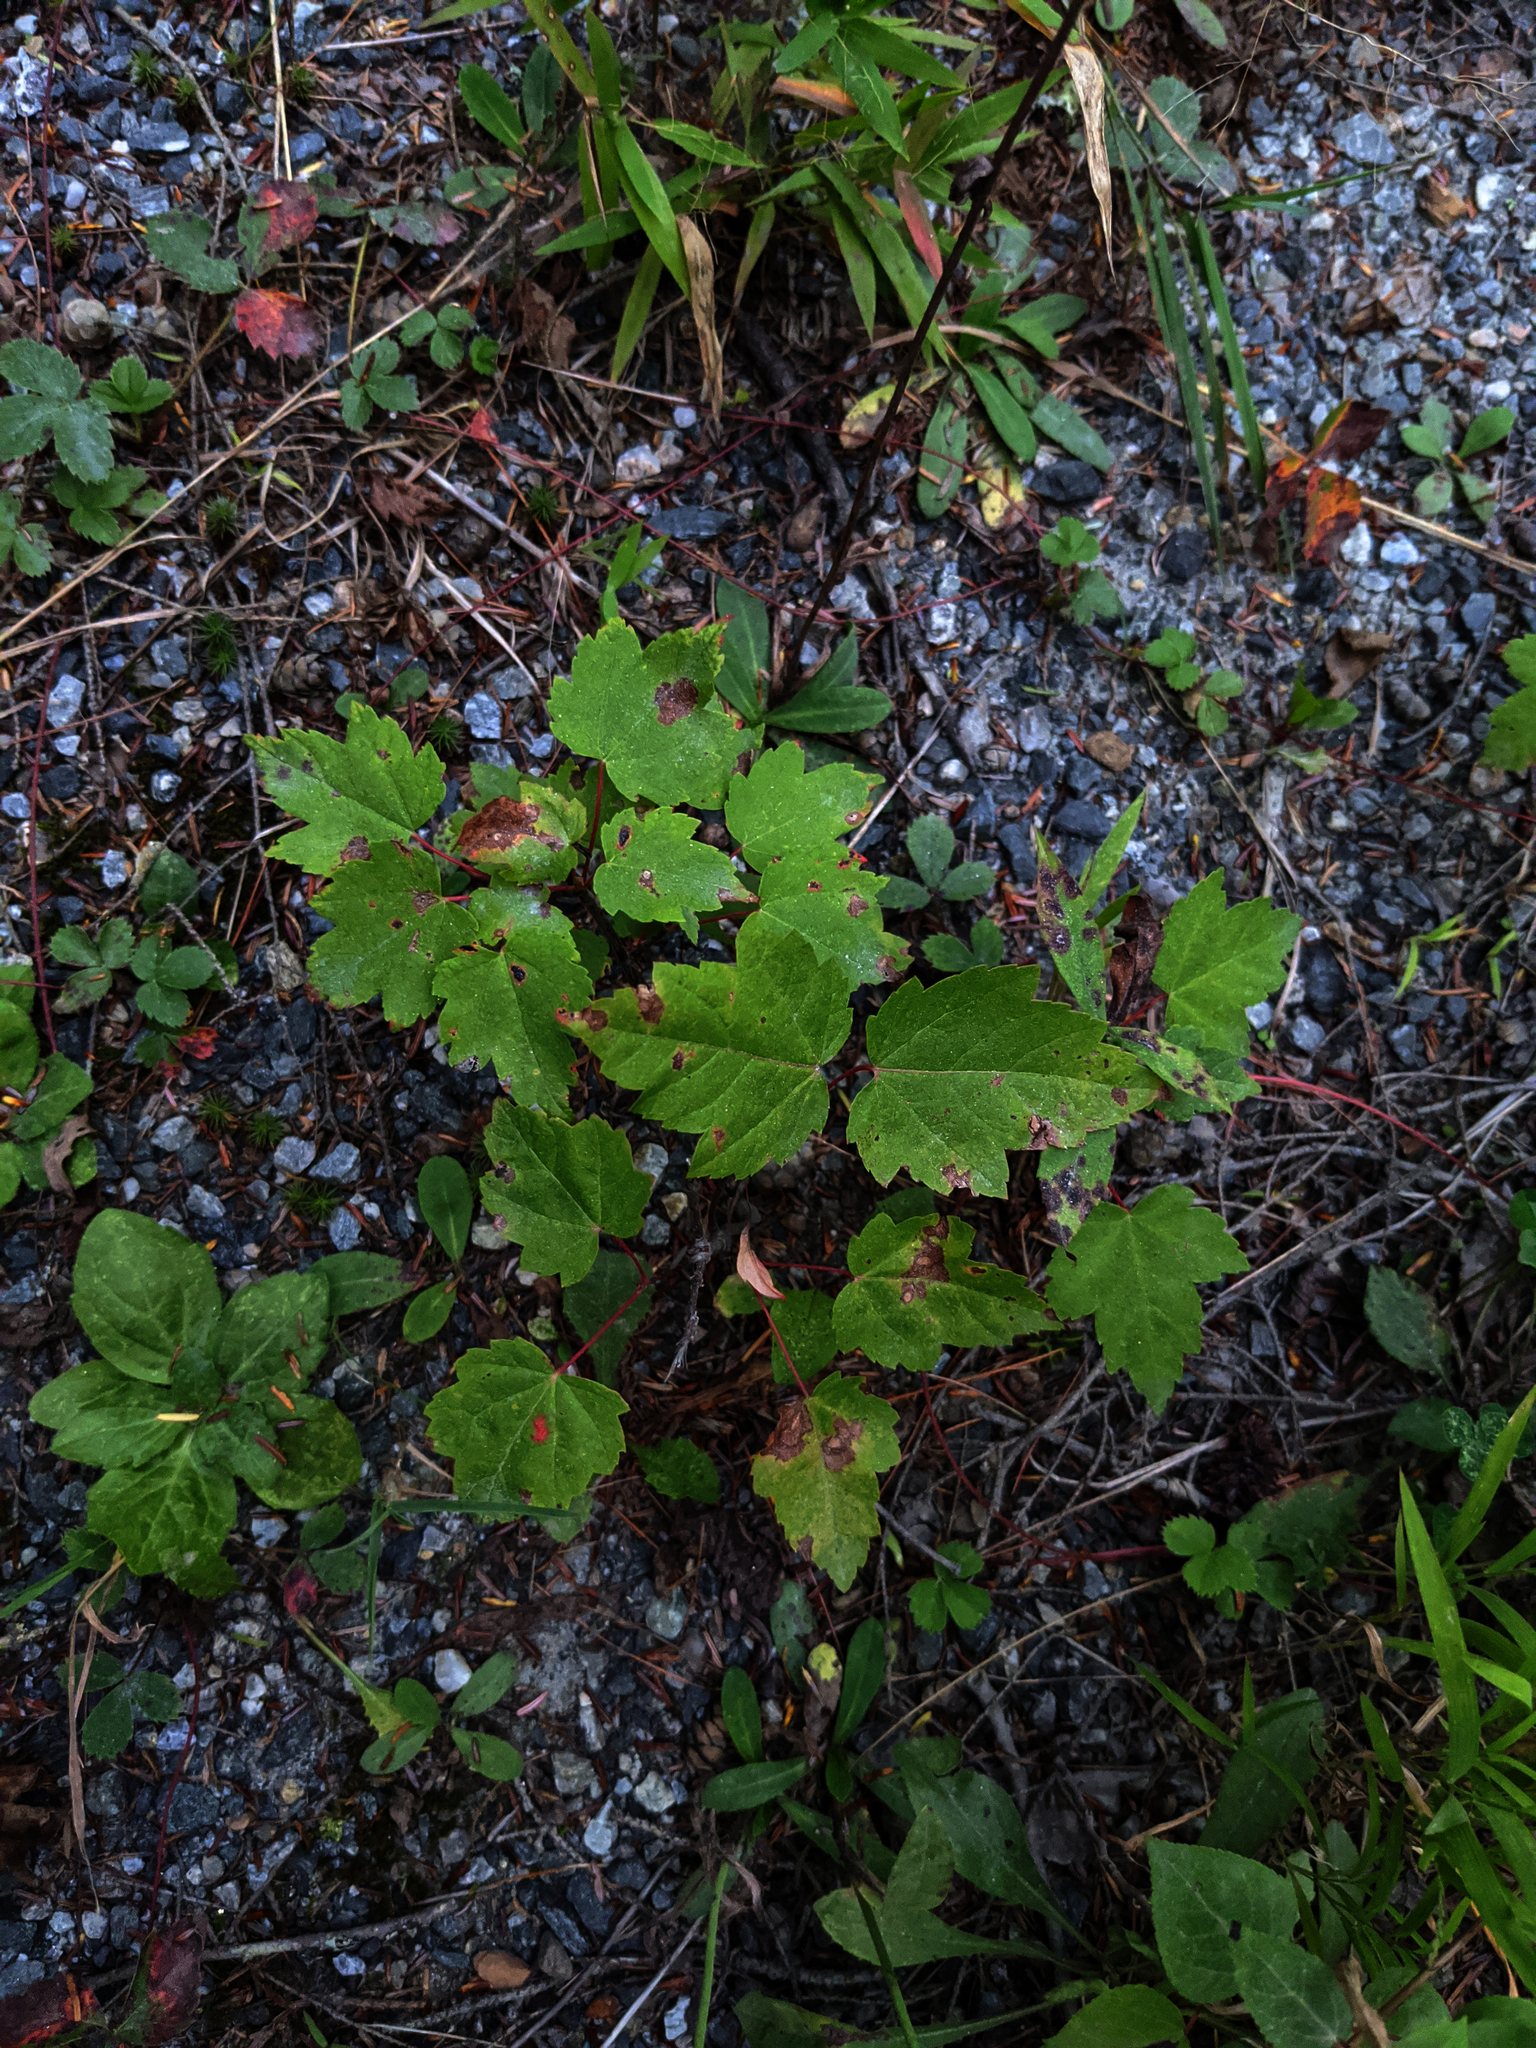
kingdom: Plantae
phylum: Tracheophyta
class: Magnoliopsida
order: Sapindales
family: Sapindaceae
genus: Acer
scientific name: Acer rubrum
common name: Red maple
